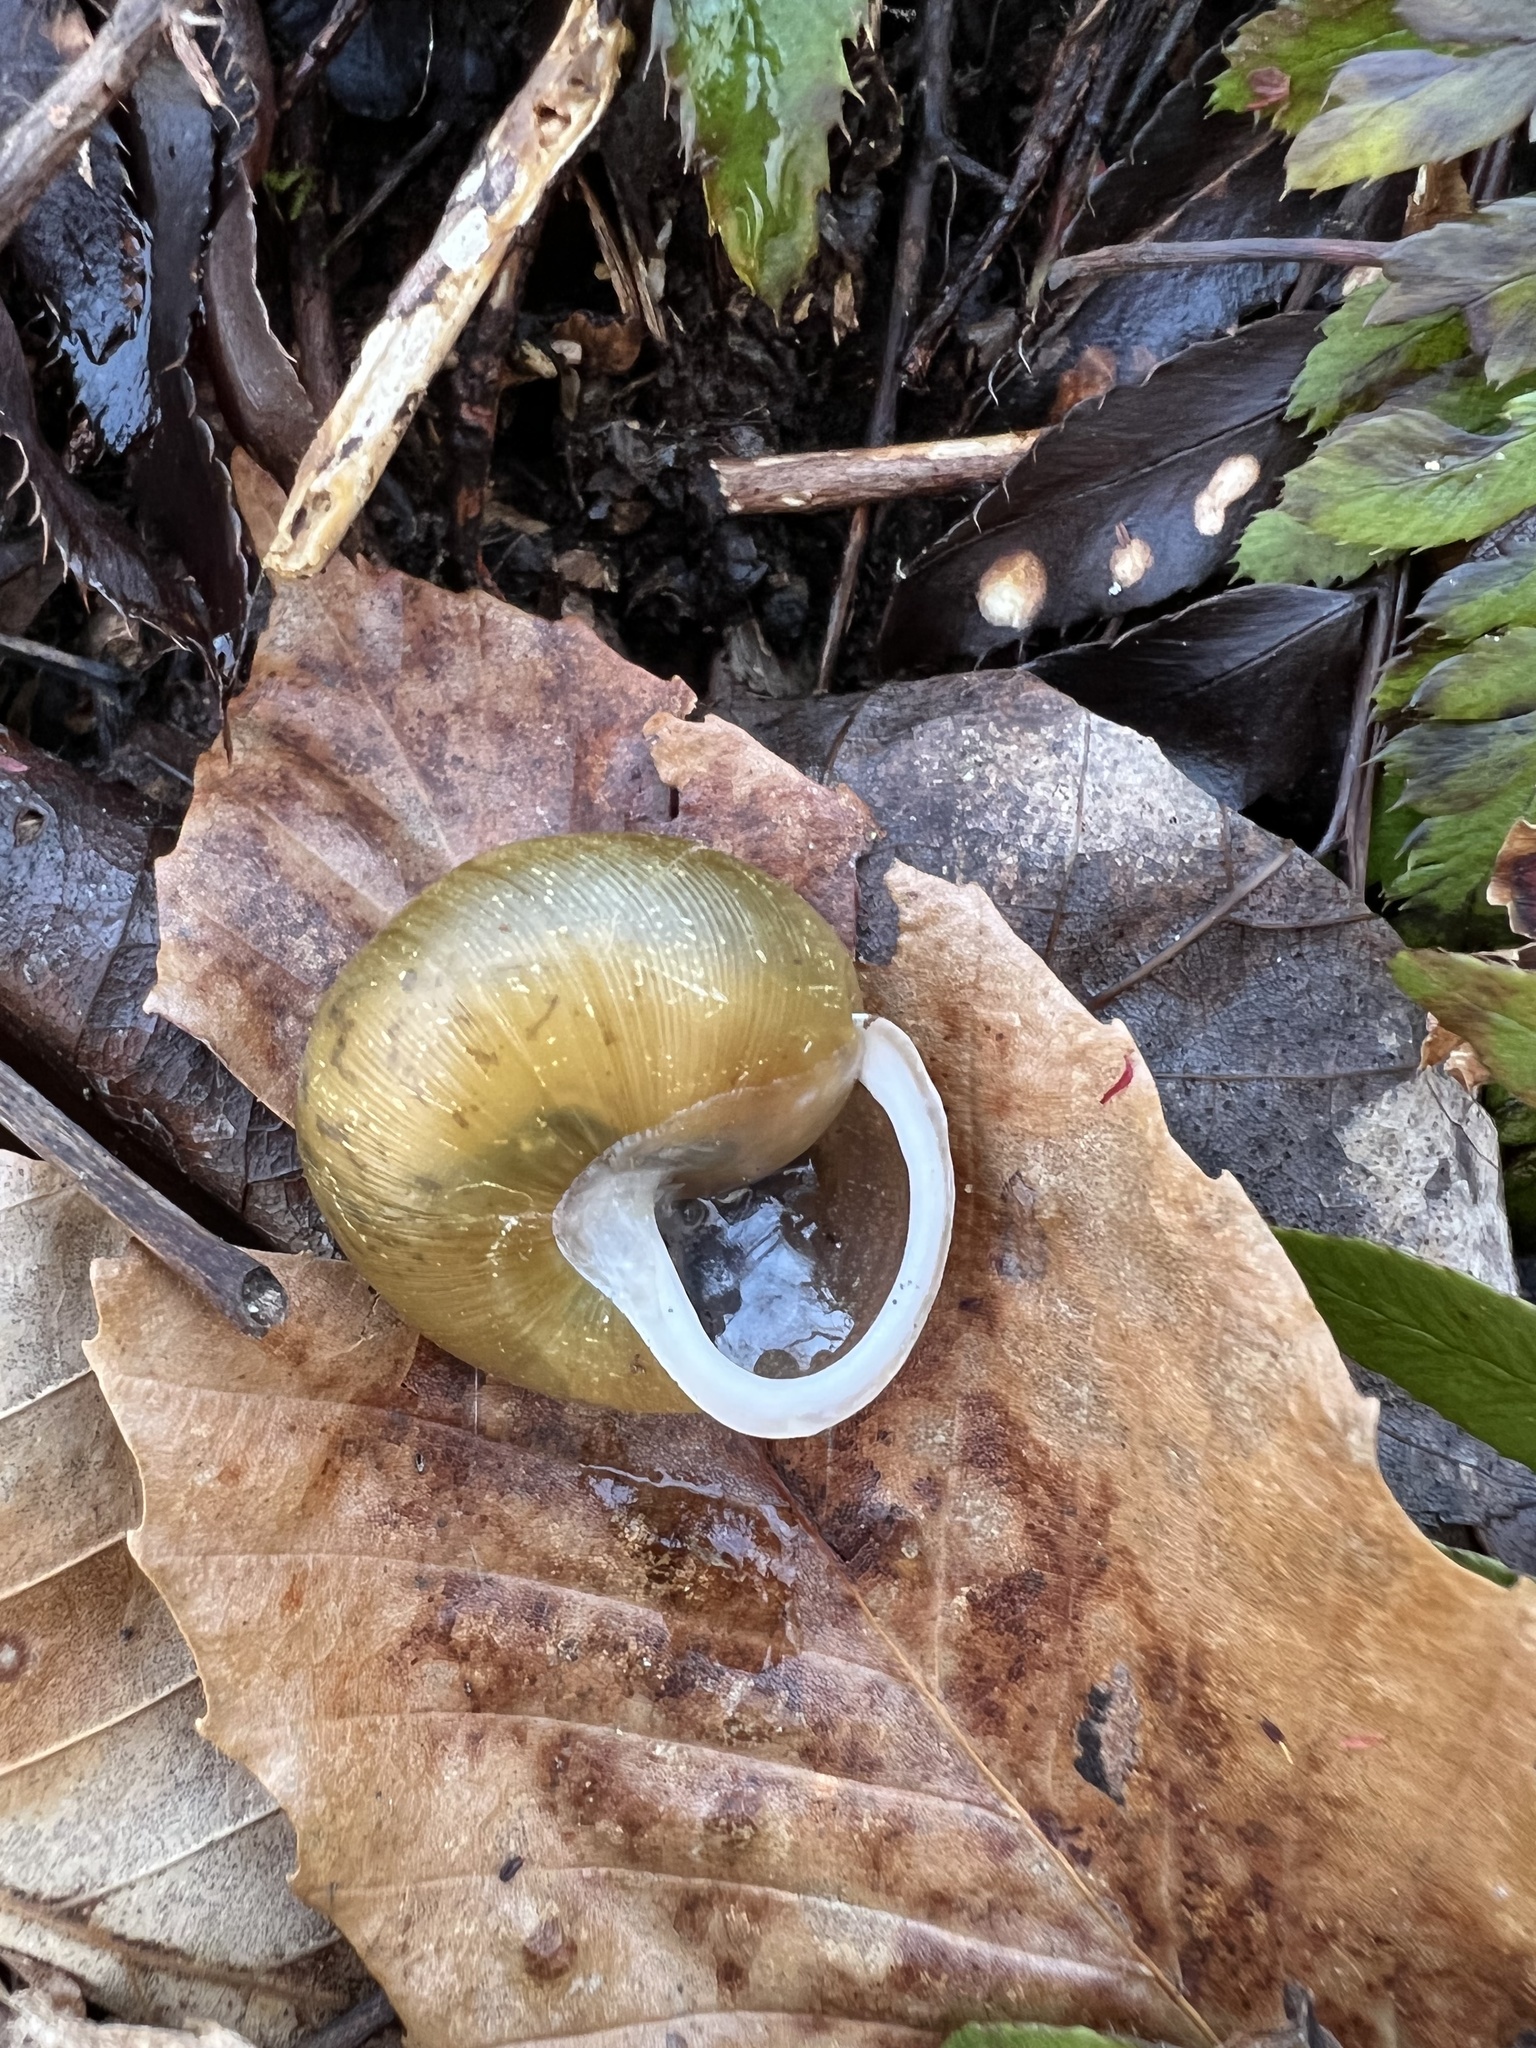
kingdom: Animalia
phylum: Mollusca
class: Gastropoda
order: Stylommatophora
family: Polygyridae
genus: Neohelix
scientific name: Neohelix albolabris
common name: Eastern whitelip
